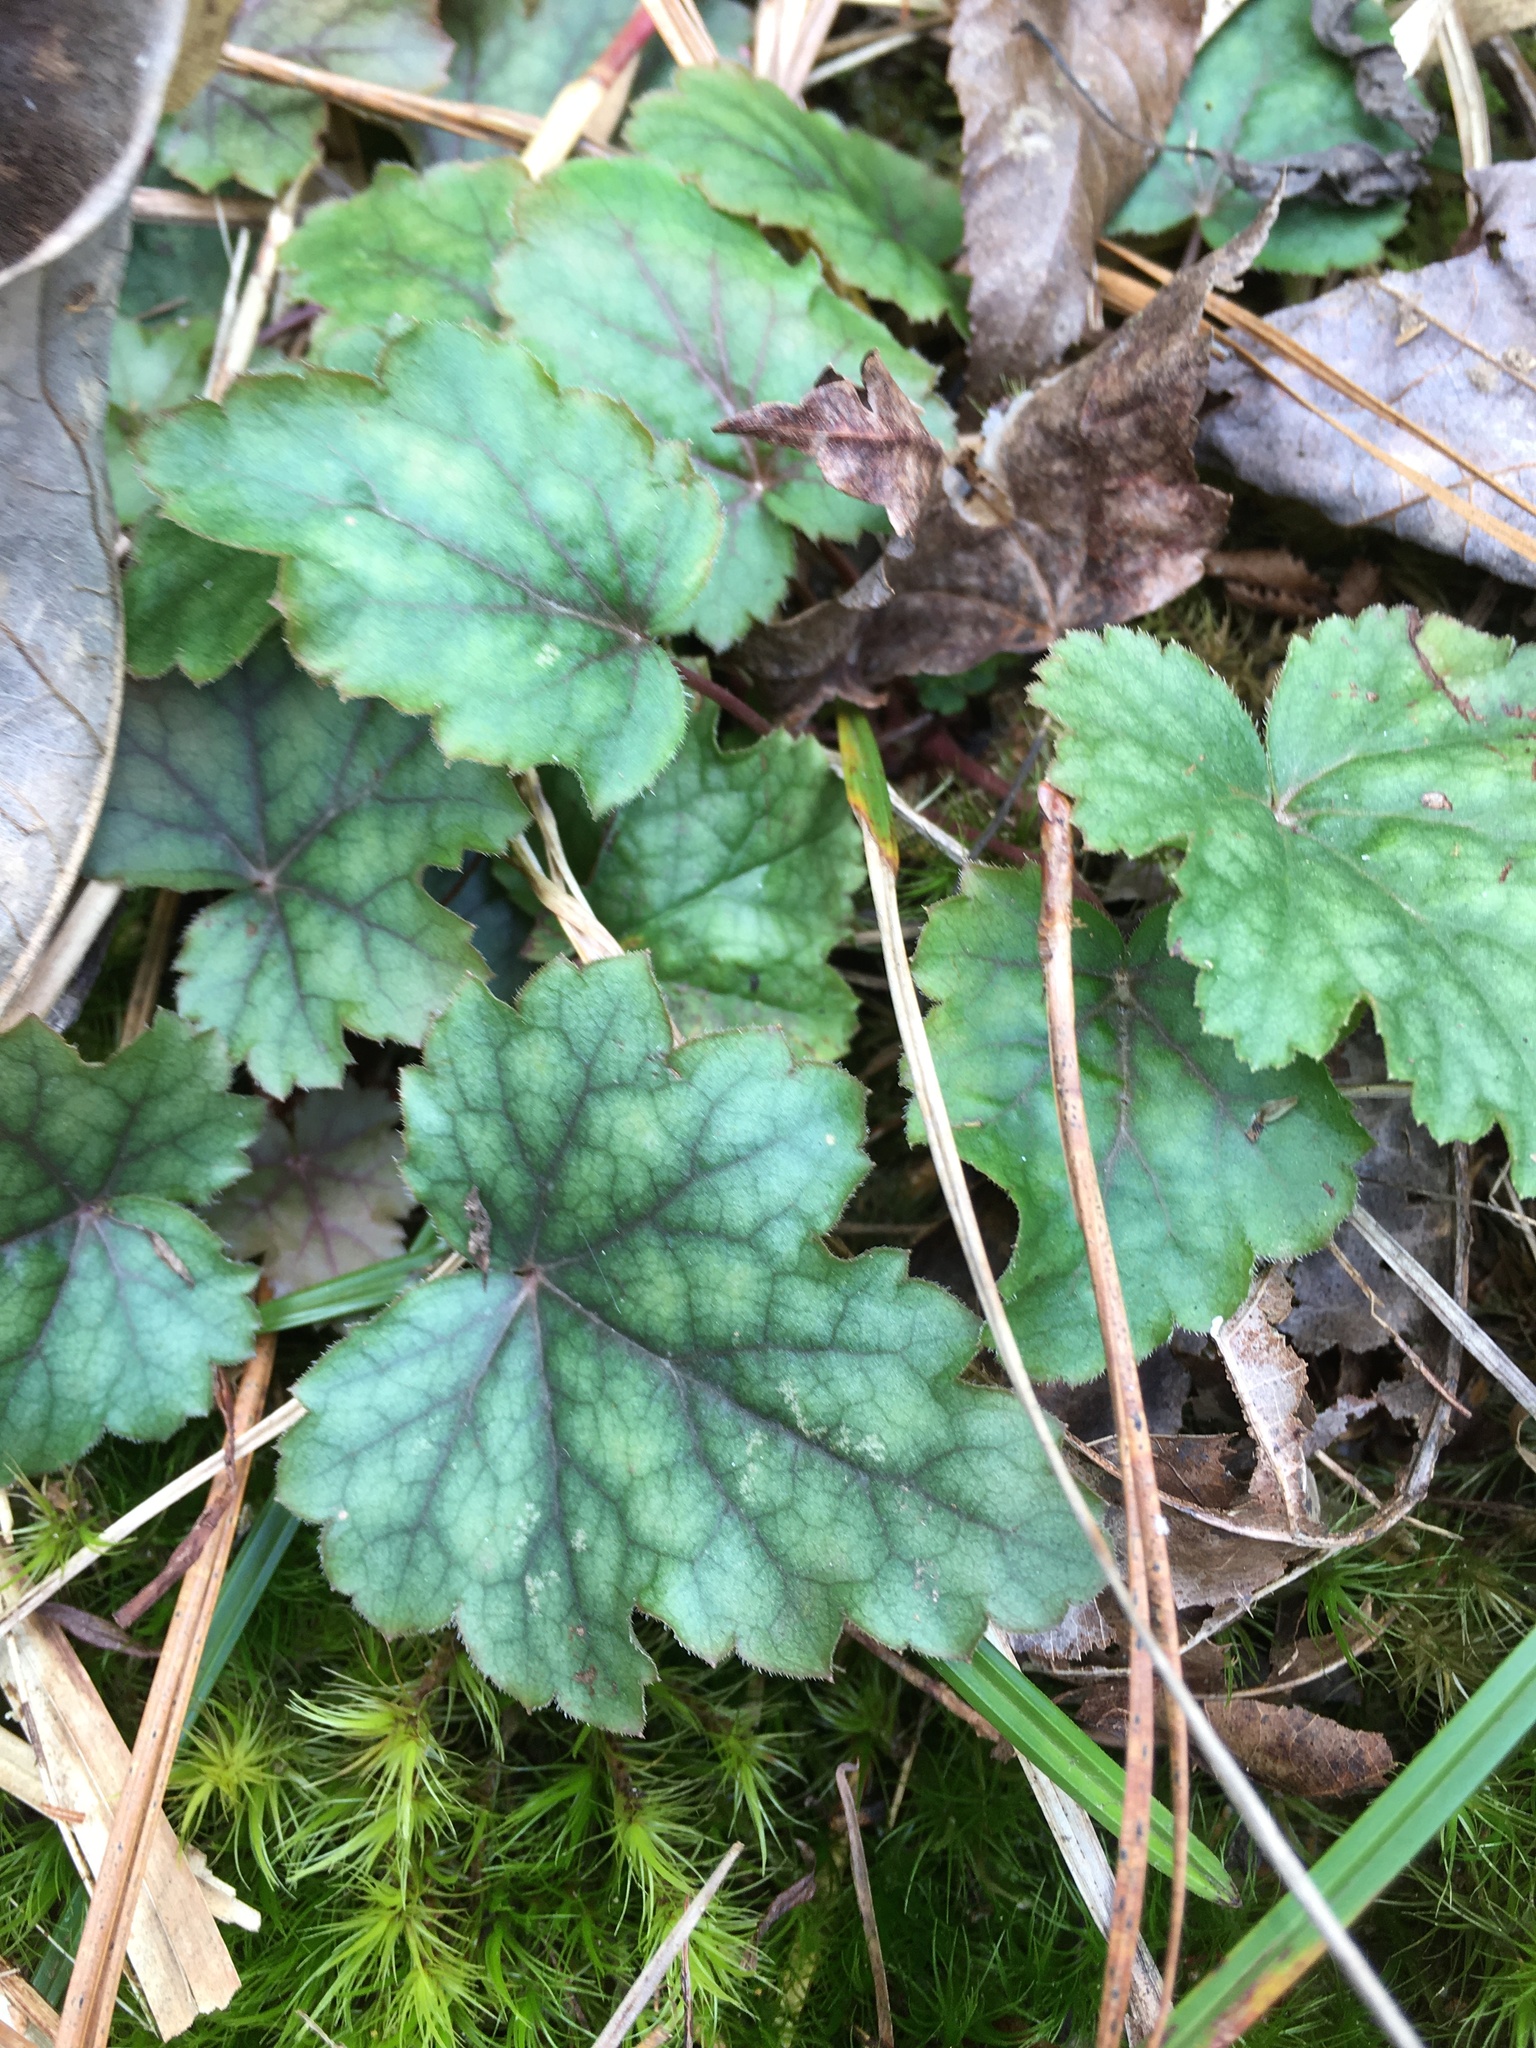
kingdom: Plantae
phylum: Tracheophyta
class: Magnoliopsida
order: Saxifragales
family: Saxifragaceae
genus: Heuchera
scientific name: Heuchera caroliniana
